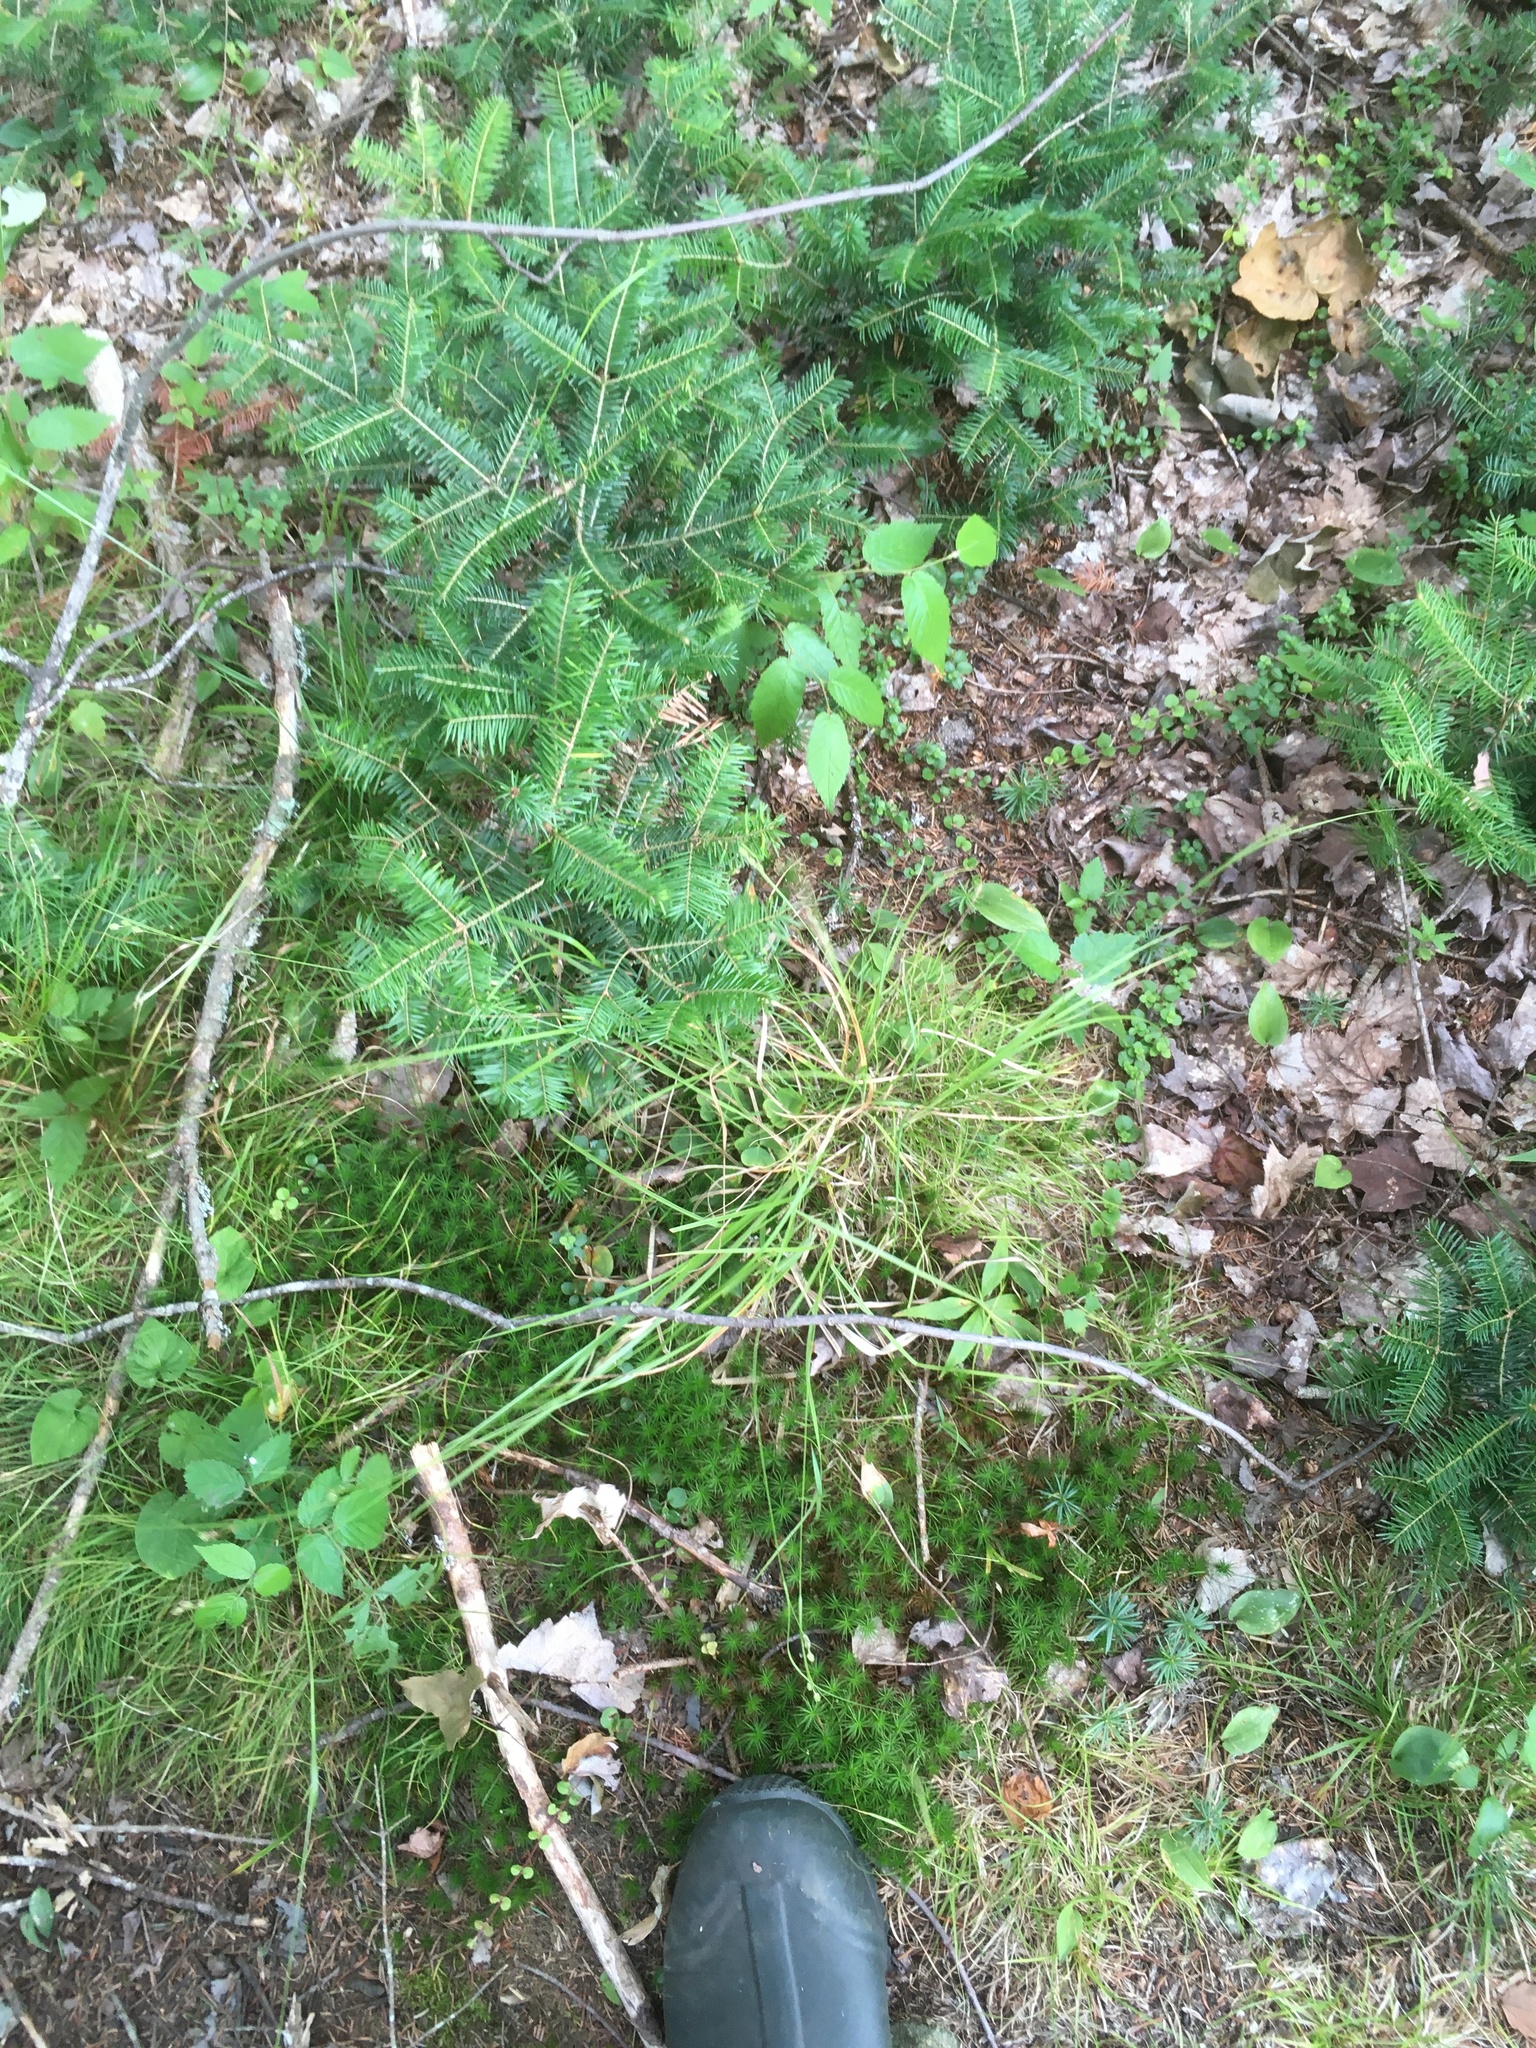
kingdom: Plantae
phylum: Tracheophyta
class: Liliopsida
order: Poales
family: Cyperaceae
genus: Carex
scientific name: Carex swanii
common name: Downy green sedge
